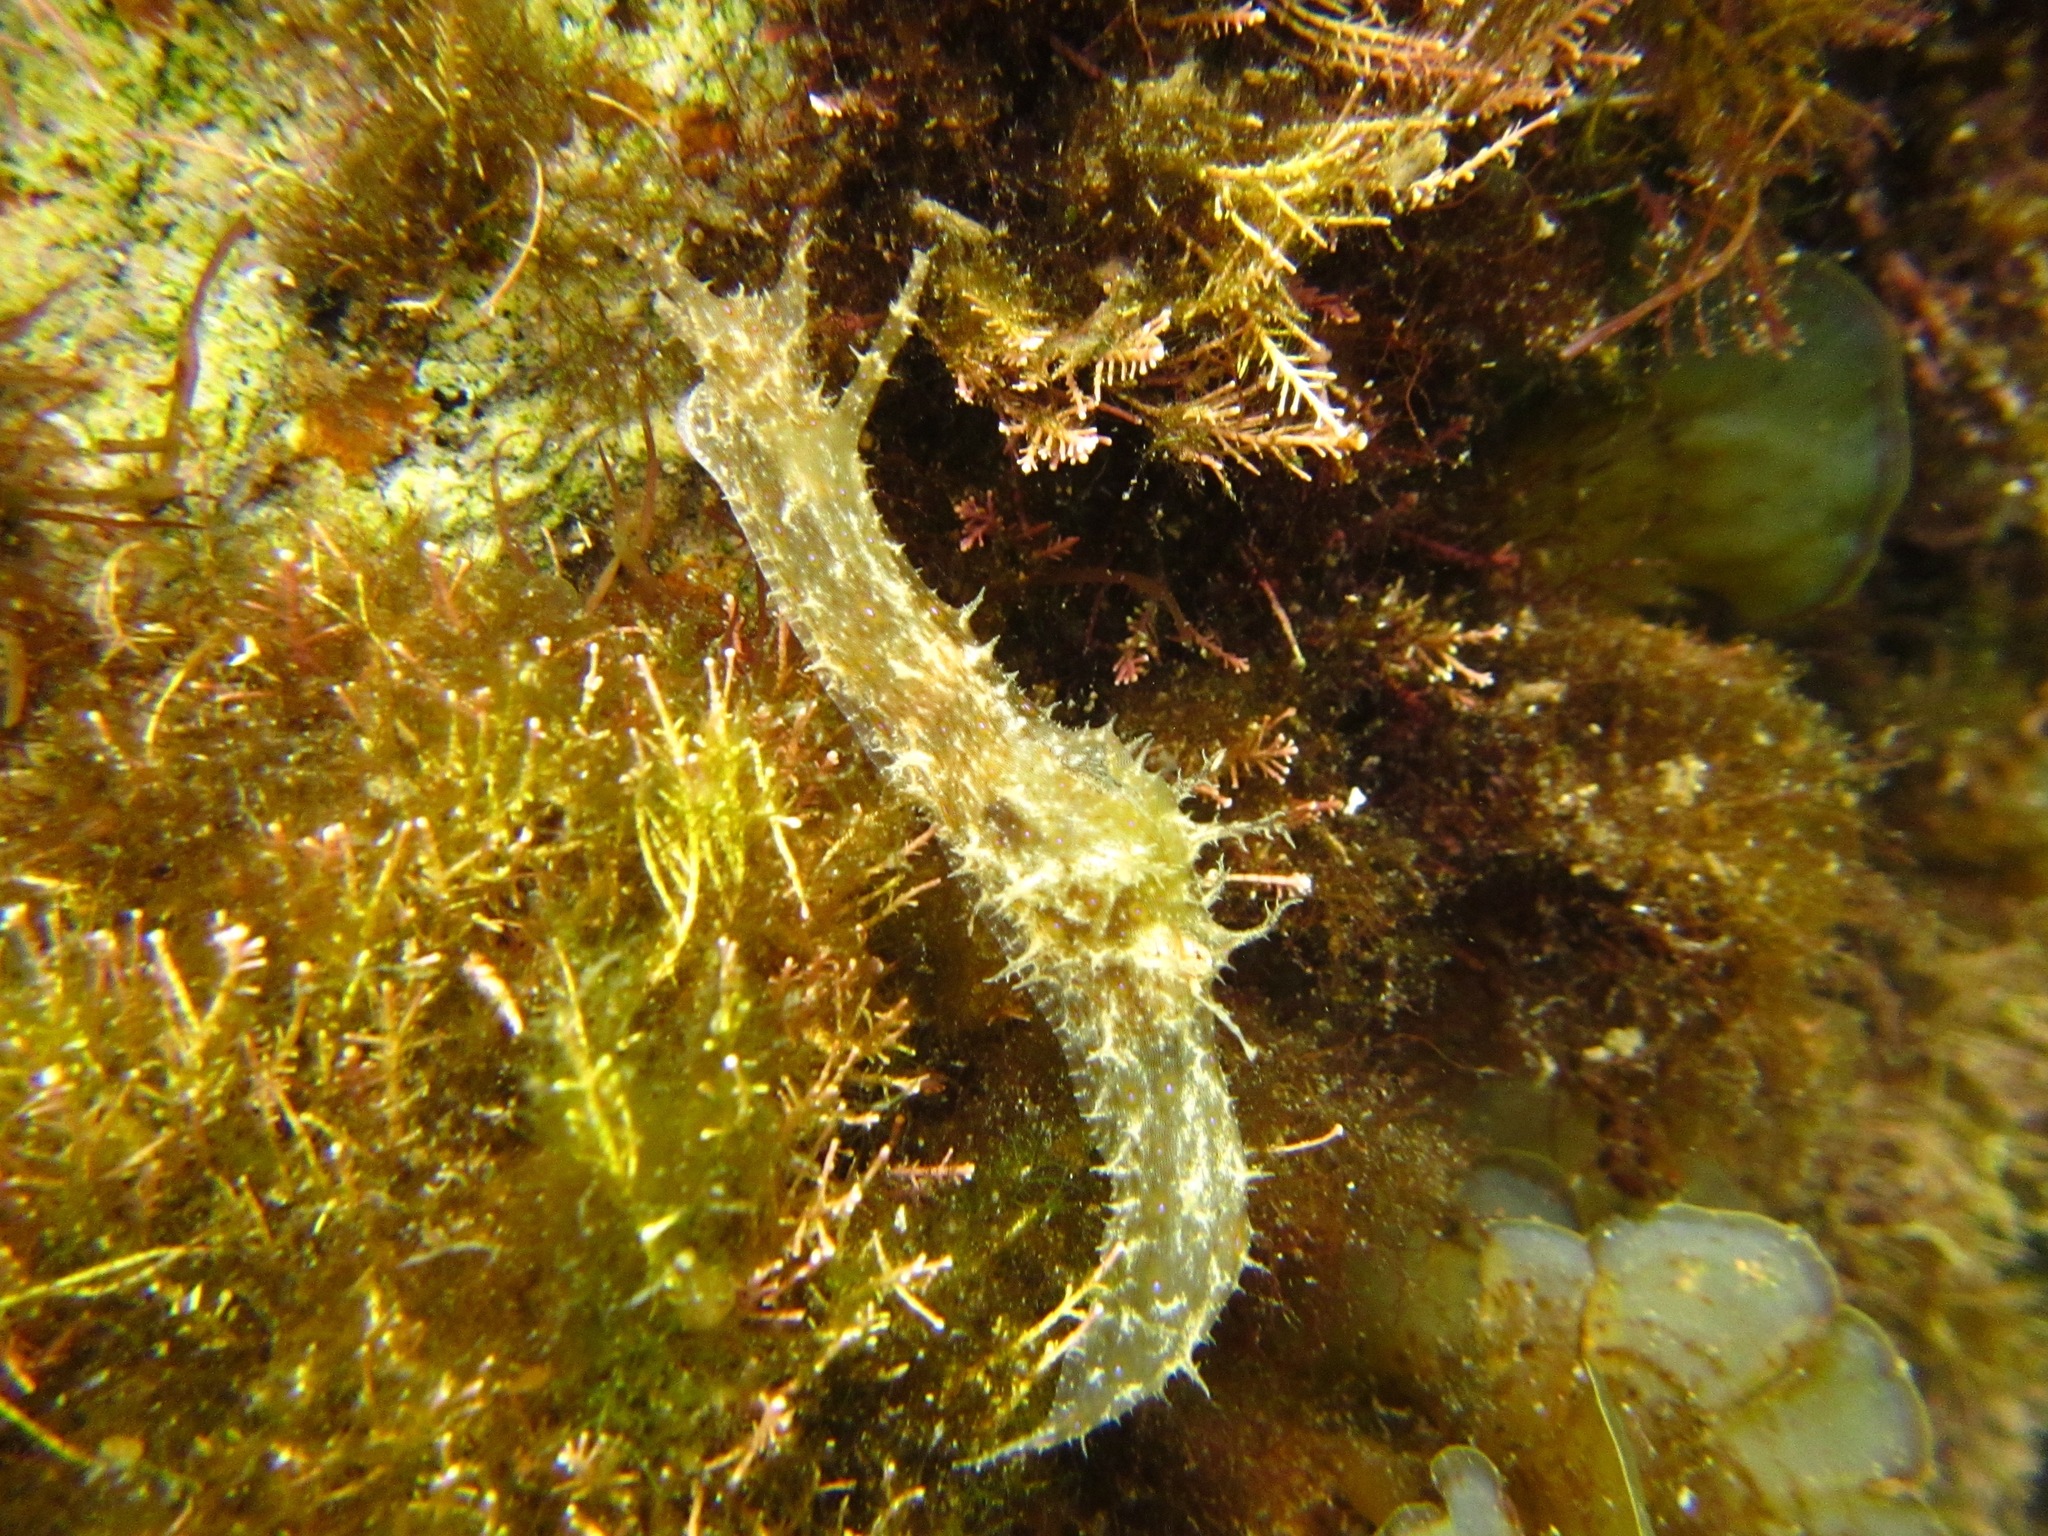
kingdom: Animalia
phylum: Mollusca
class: Gastropoda
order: Aplysiida
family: Aplysiidae
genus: Stylocheilus
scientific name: Stylocheilus striatus
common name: Striated seahare
